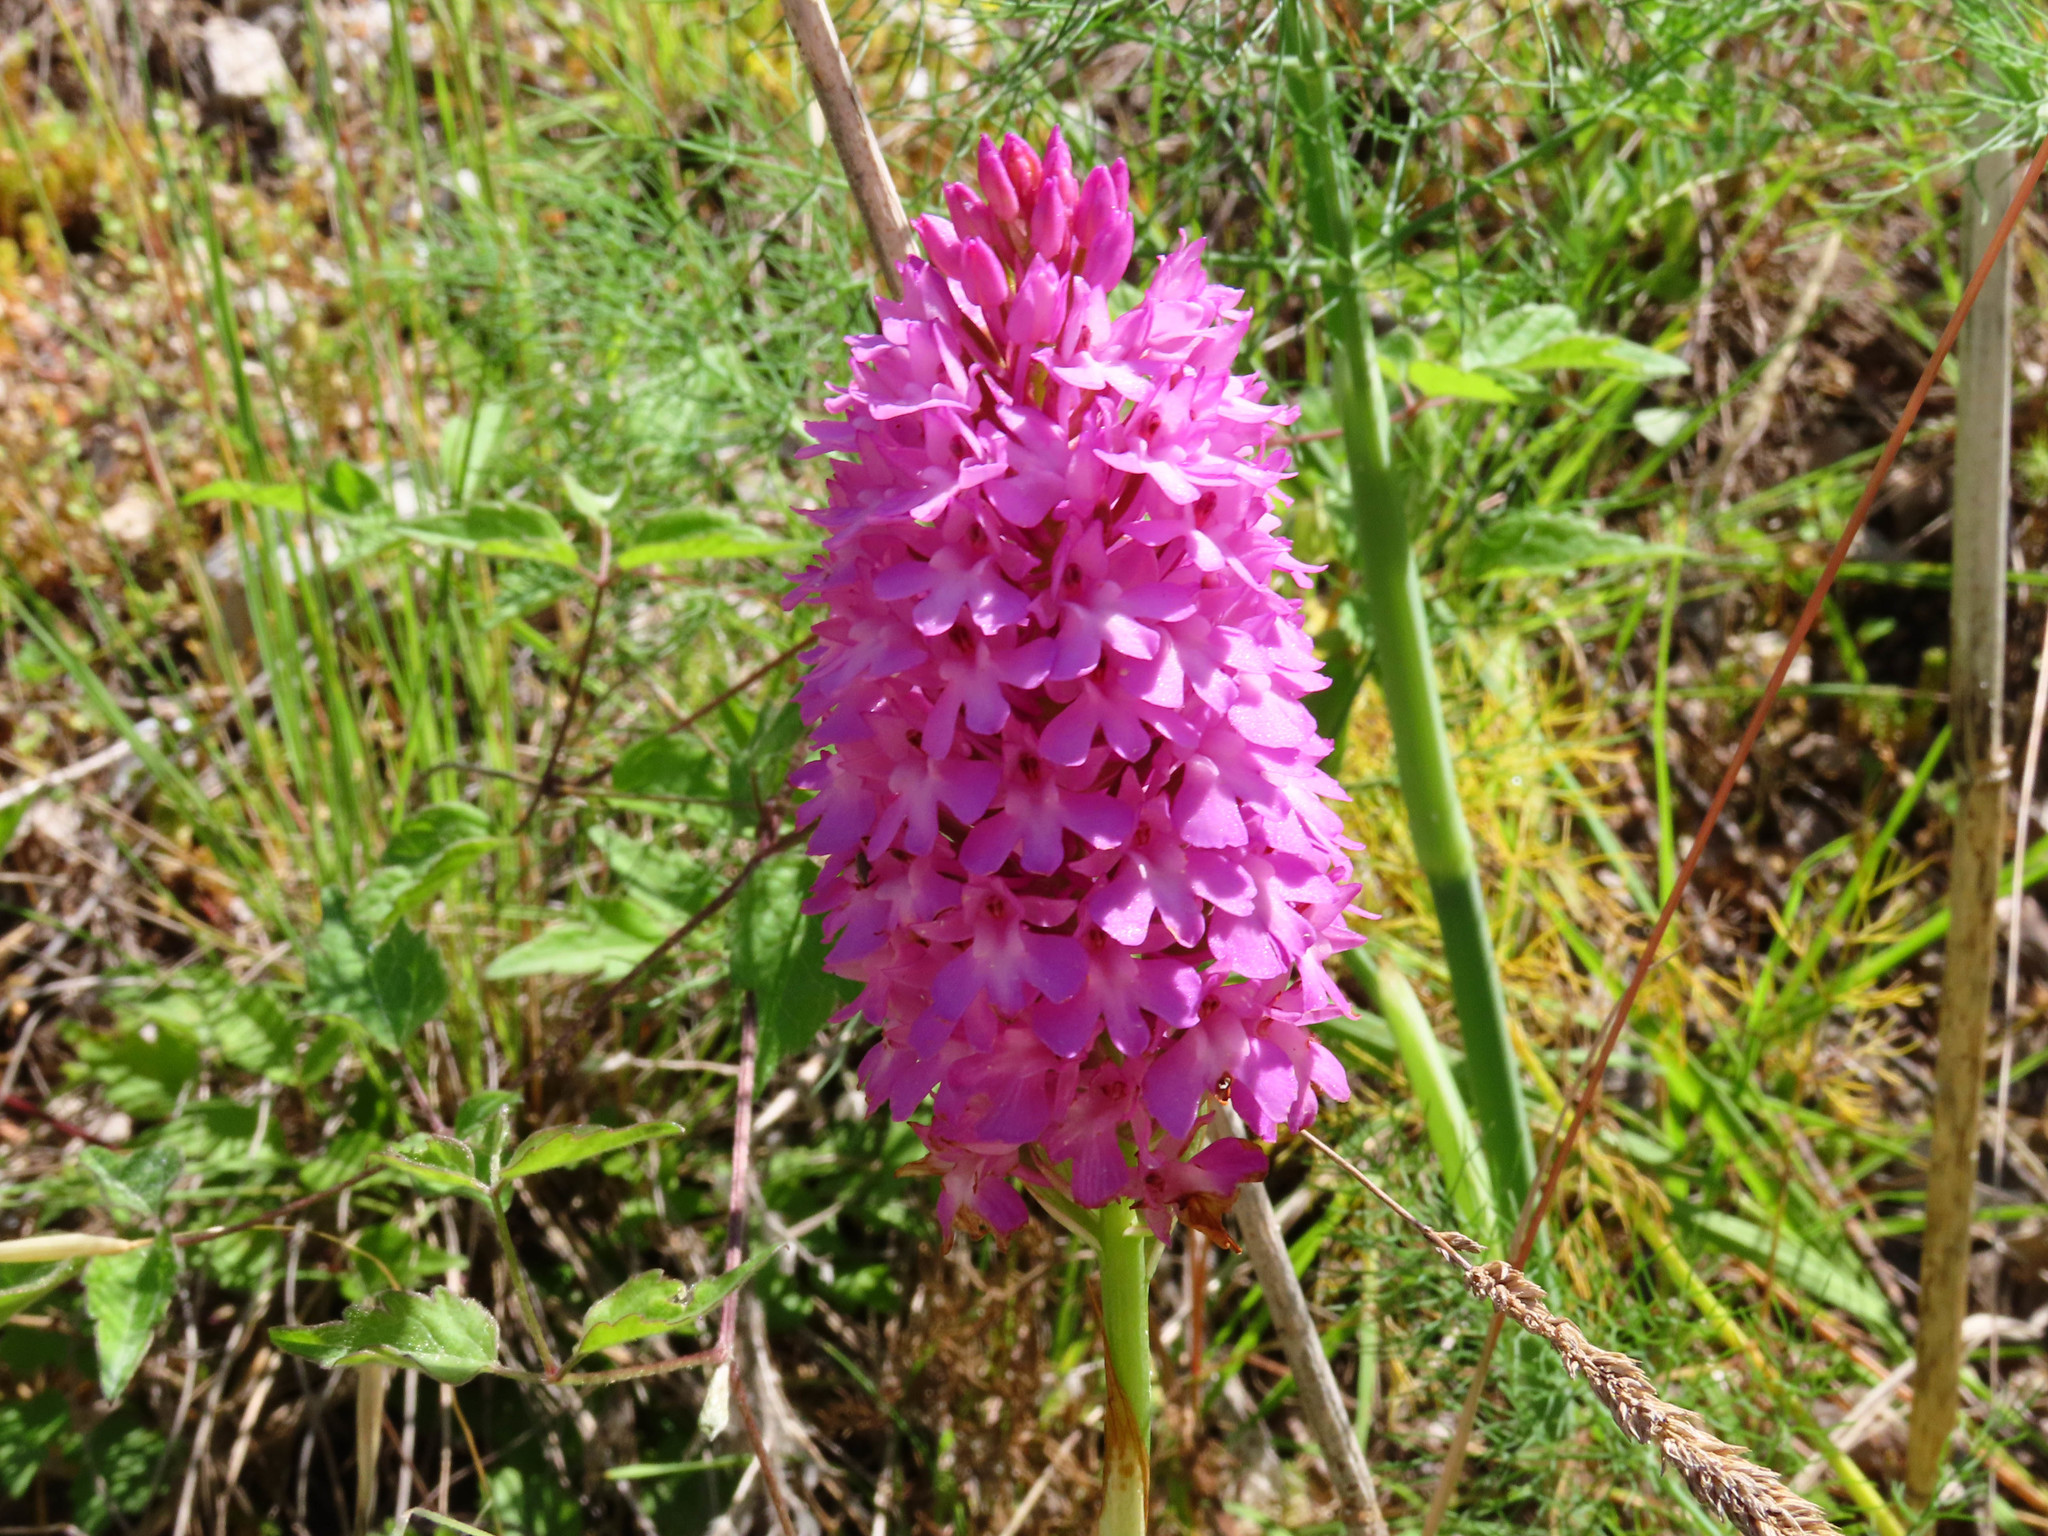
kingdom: Plantae
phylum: Tracheophyta
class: Liliopsida
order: Asparagales
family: Orchidaceae
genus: Anacamptis
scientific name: Anacamptis pyramidalis
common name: Pyramidal orchid
